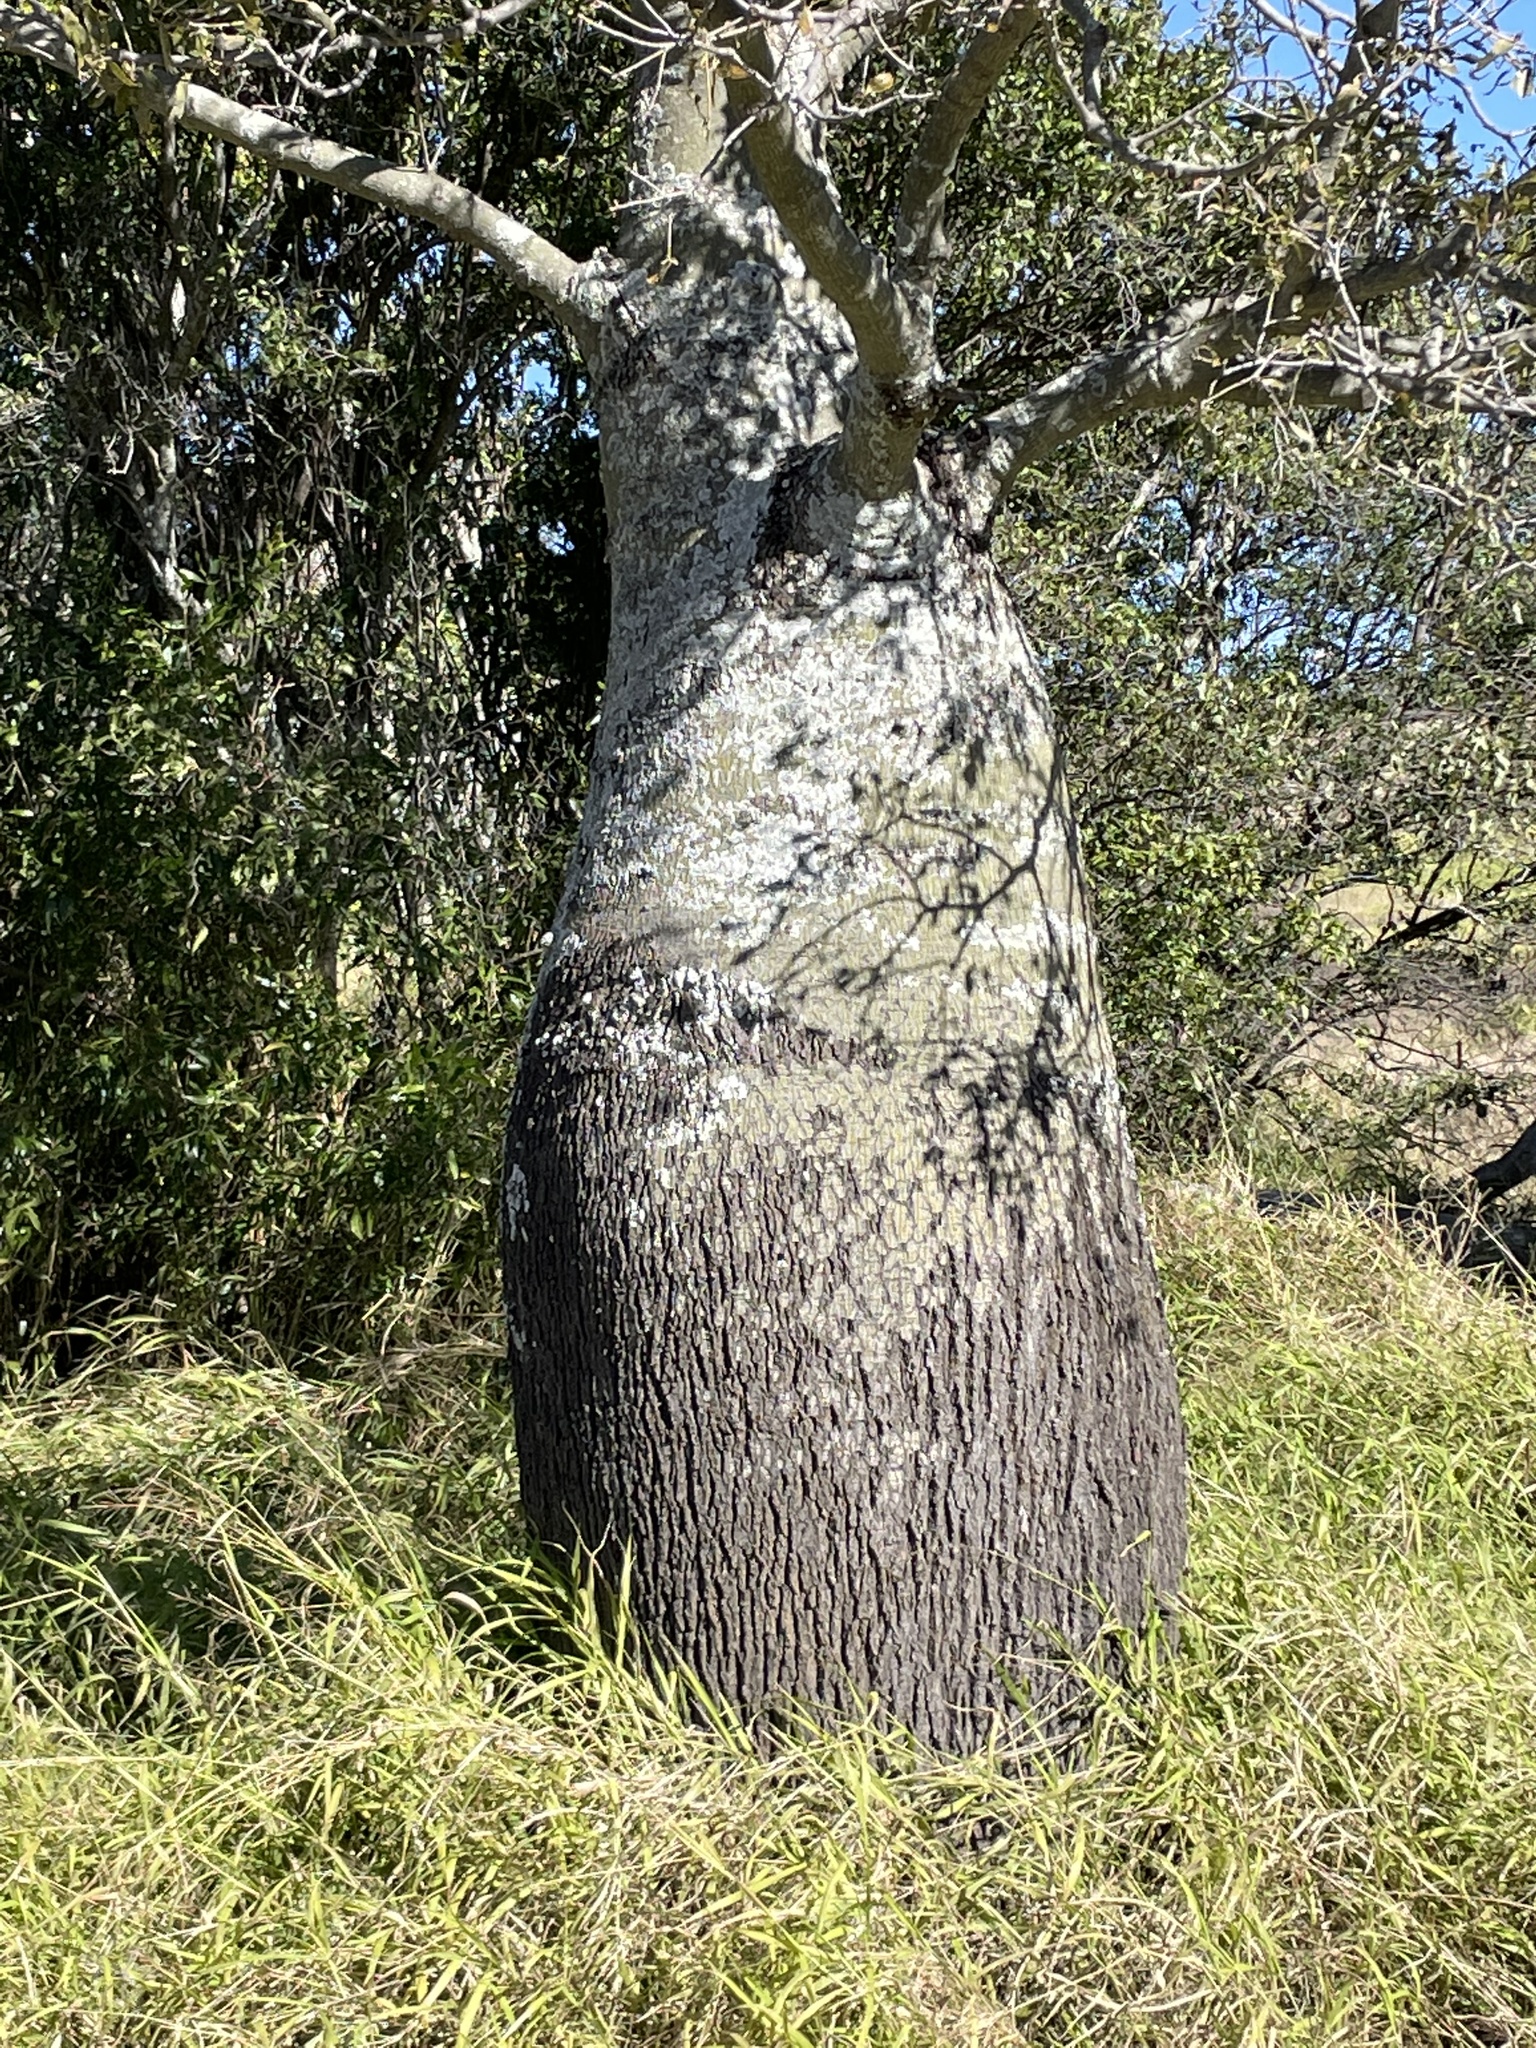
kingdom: Plantae
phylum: Tracheophyta
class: Magnoliopsida
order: Malvales
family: Malvaceae
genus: Brachychiton
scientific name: Brachychiton rupestris
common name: Queensland bottletree
